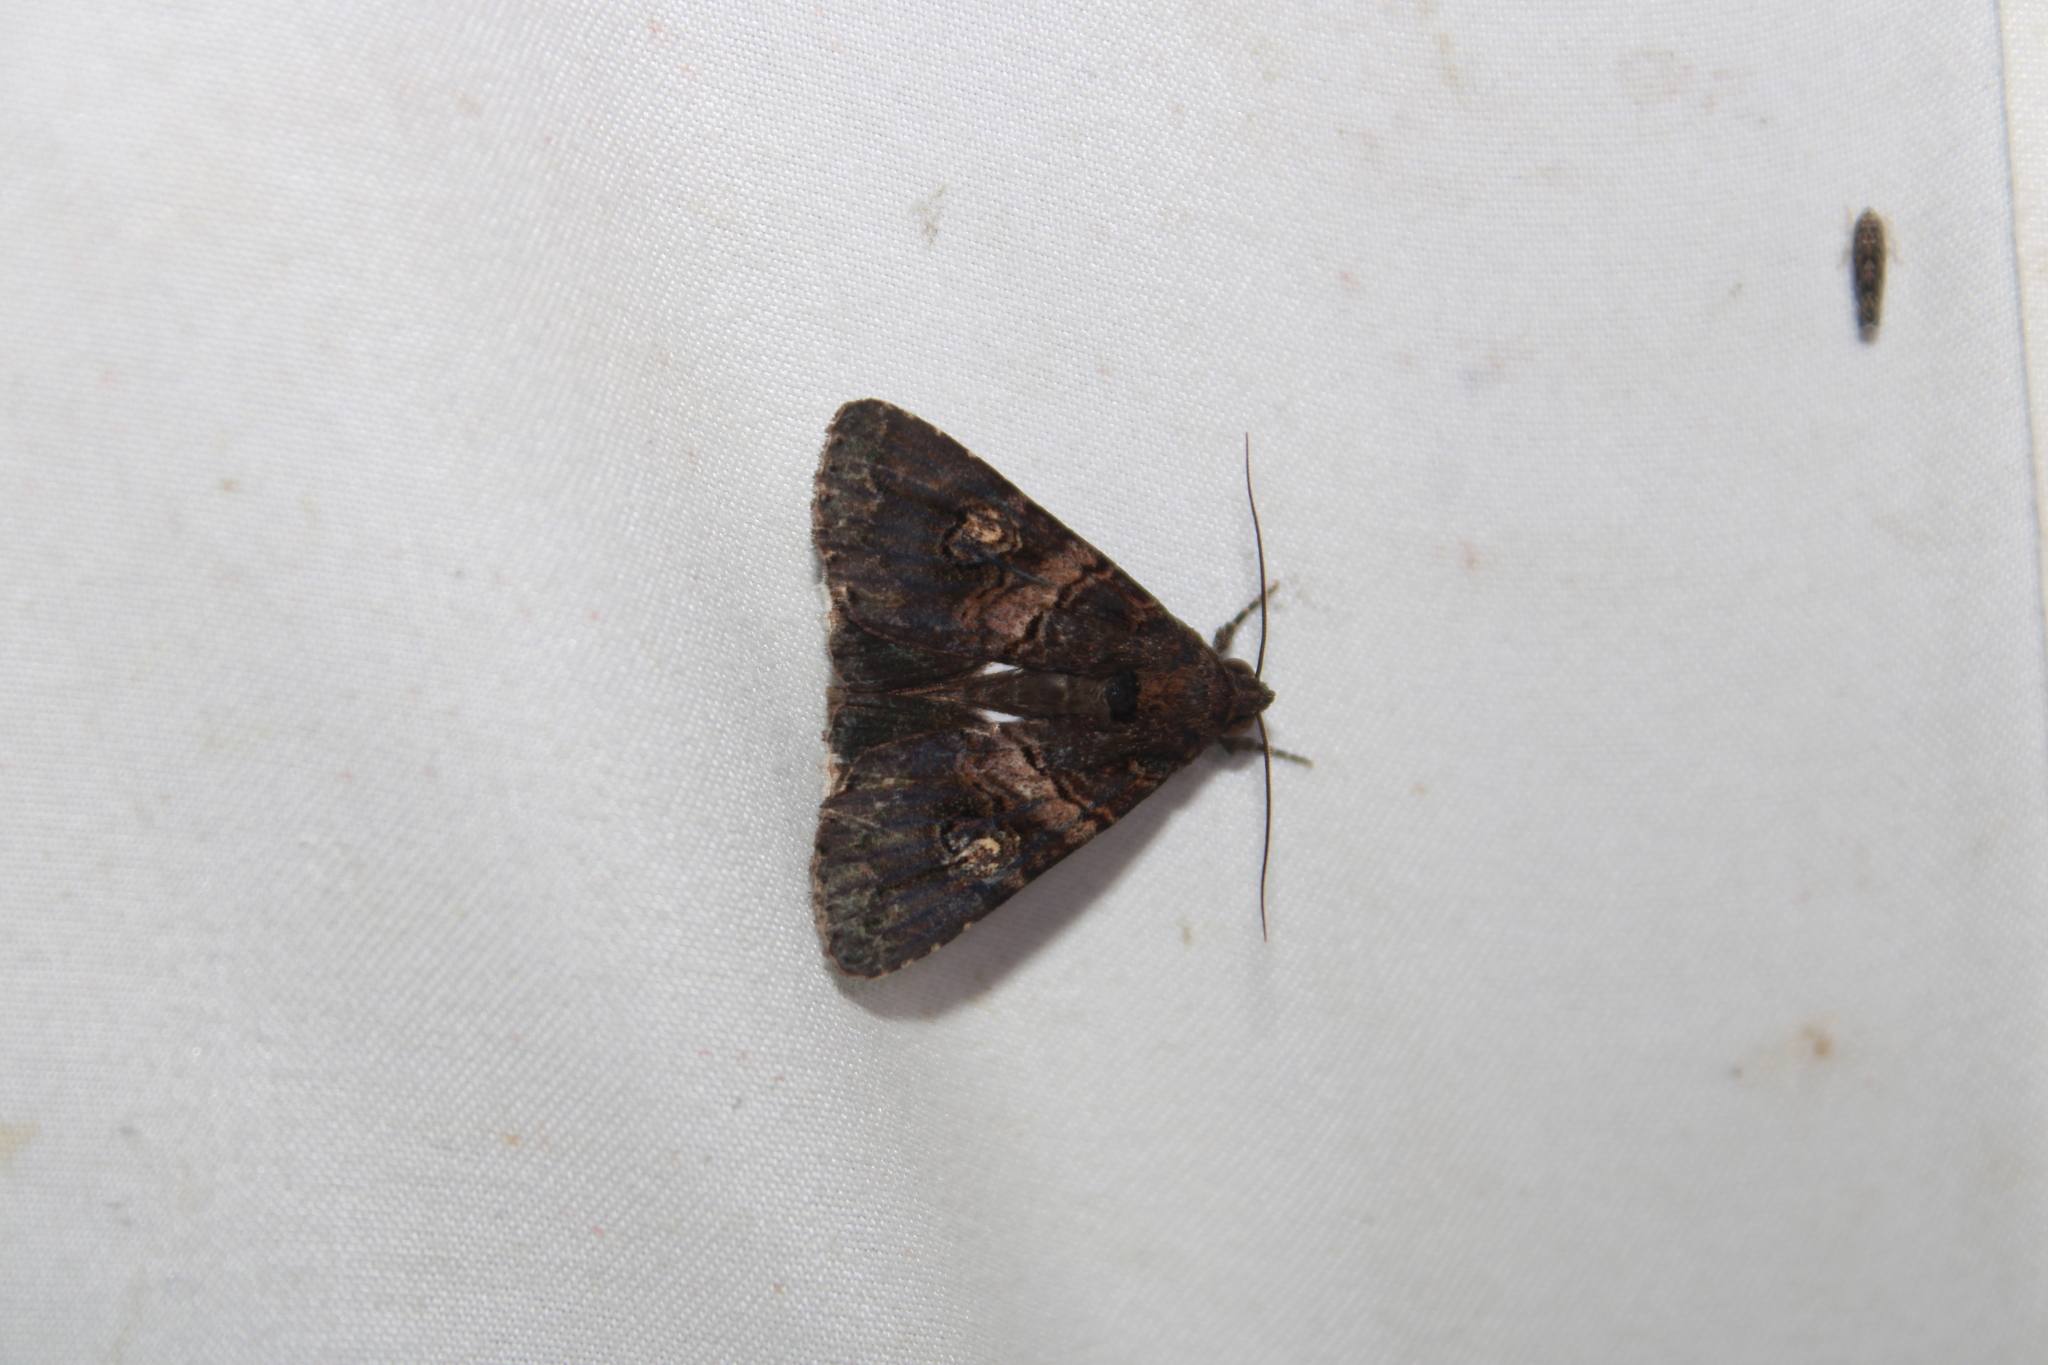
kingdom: Animalia
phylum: Arthropoda
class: Insecta
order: Lepidoptera
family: Erebidae
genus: Melipotis
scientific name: Melipotis prolata
